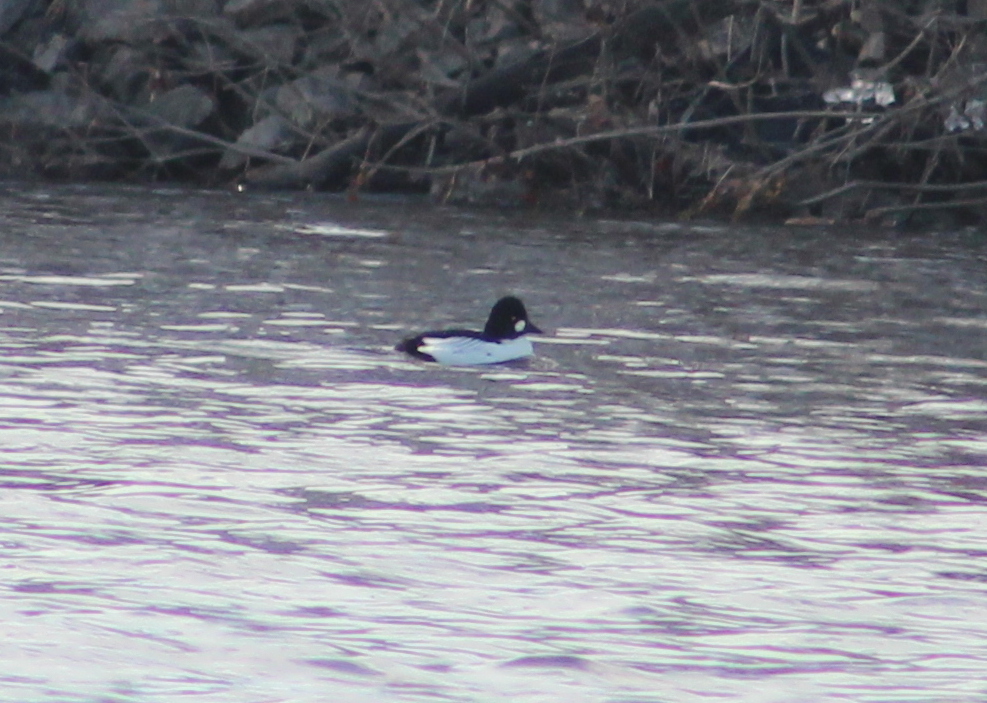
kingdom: Animalia
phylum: Chordata
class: Aves
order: Anseriformes
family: Anatidae
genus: Bucephala
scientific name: Bucephala clangula
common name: Common goldeneye
